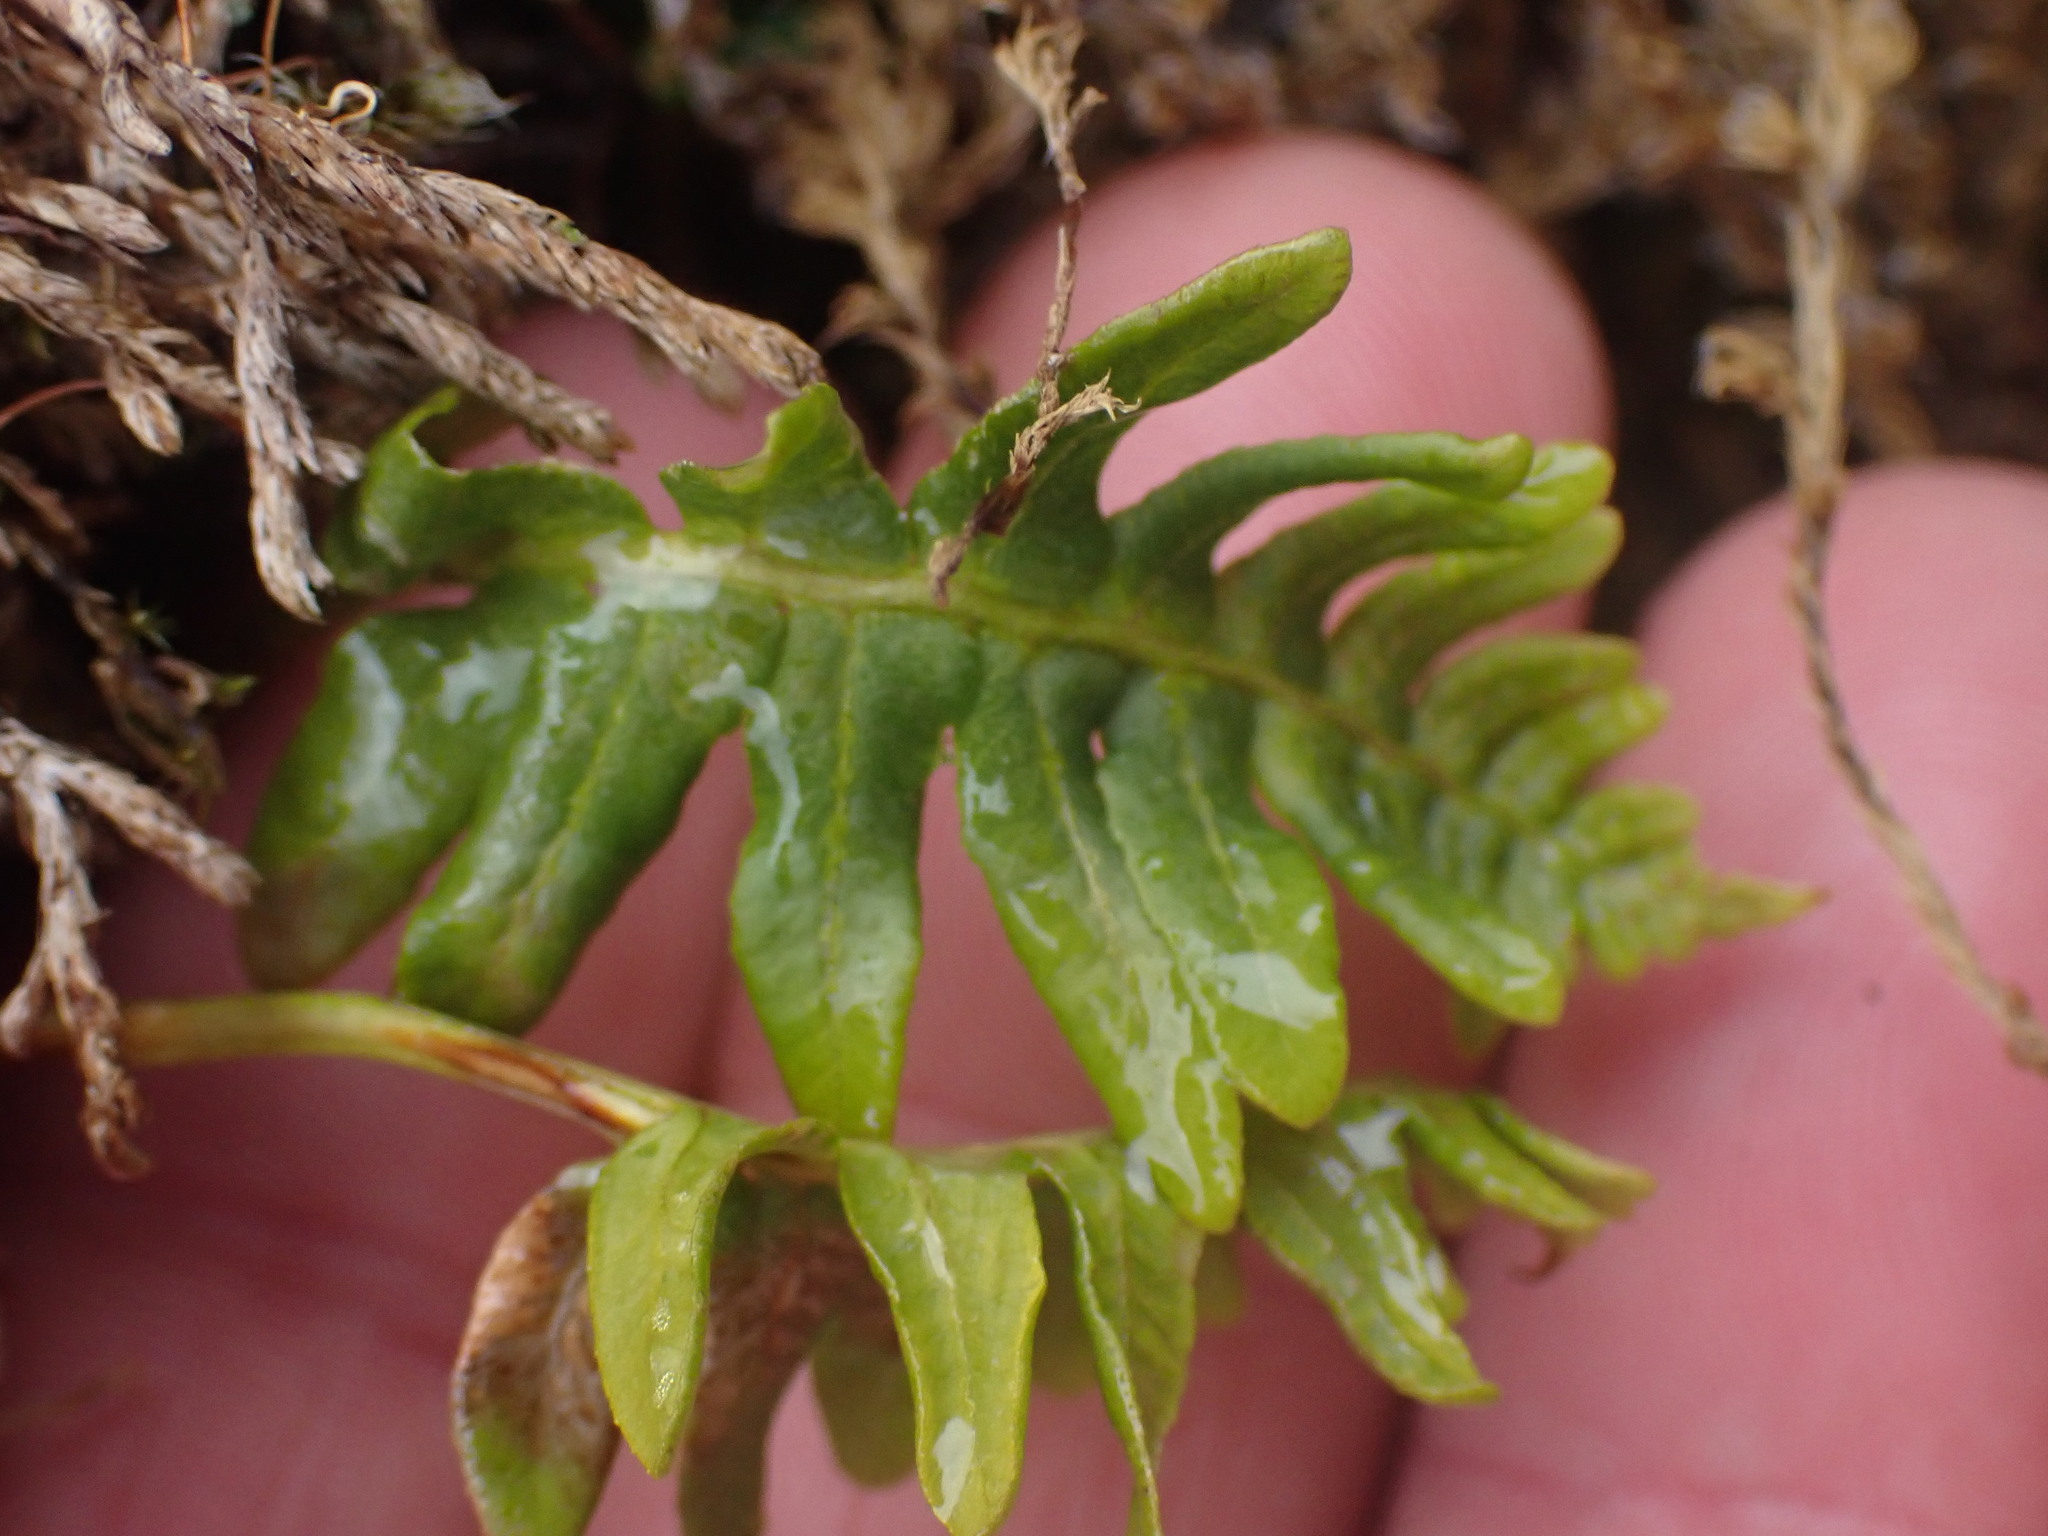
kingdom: Plantae
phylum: Tracheophyta
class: Polypodiopsida
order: Polypodiales
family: Polypodiaceae
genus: Polypodium
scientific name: Polypodium glycyrrhiza
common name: Licorice fern
